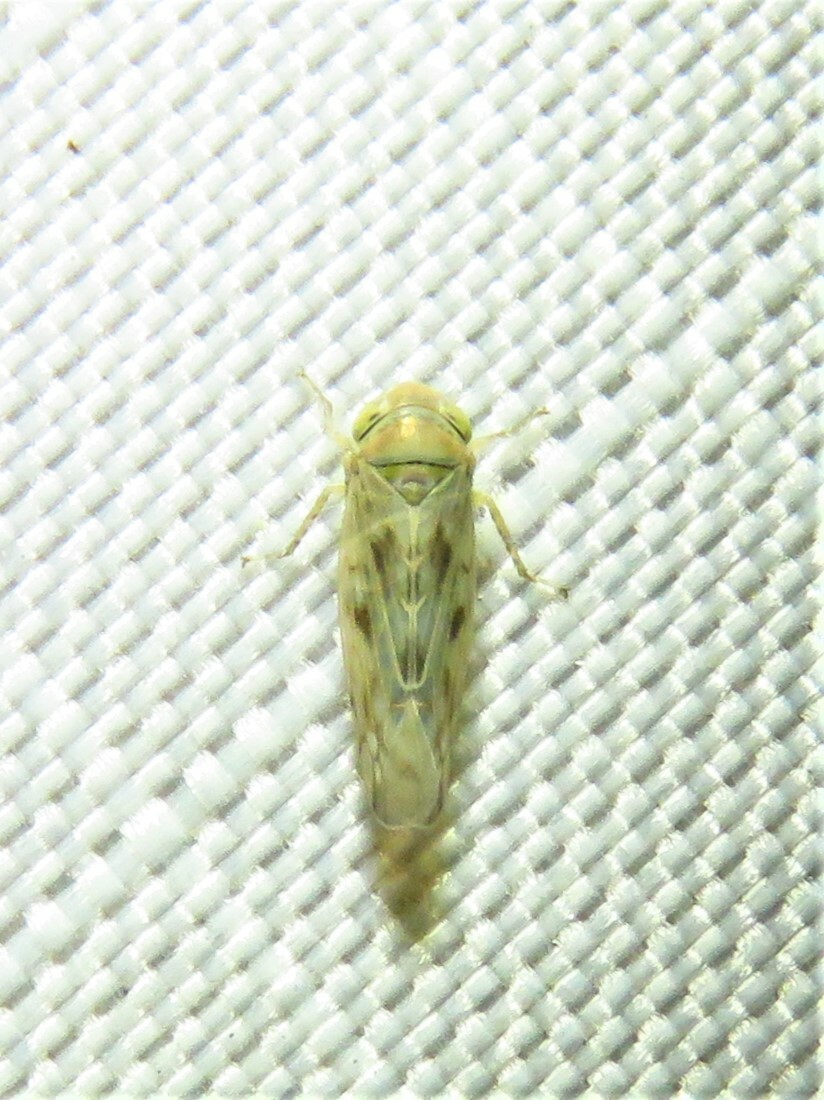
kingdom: Animalia
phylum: Arthropoda
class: Insecta
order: Hemiptera
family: Cicadellidae
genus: Neoaliturus
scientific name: Neoaliturus tenellus
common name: Leafhopper
